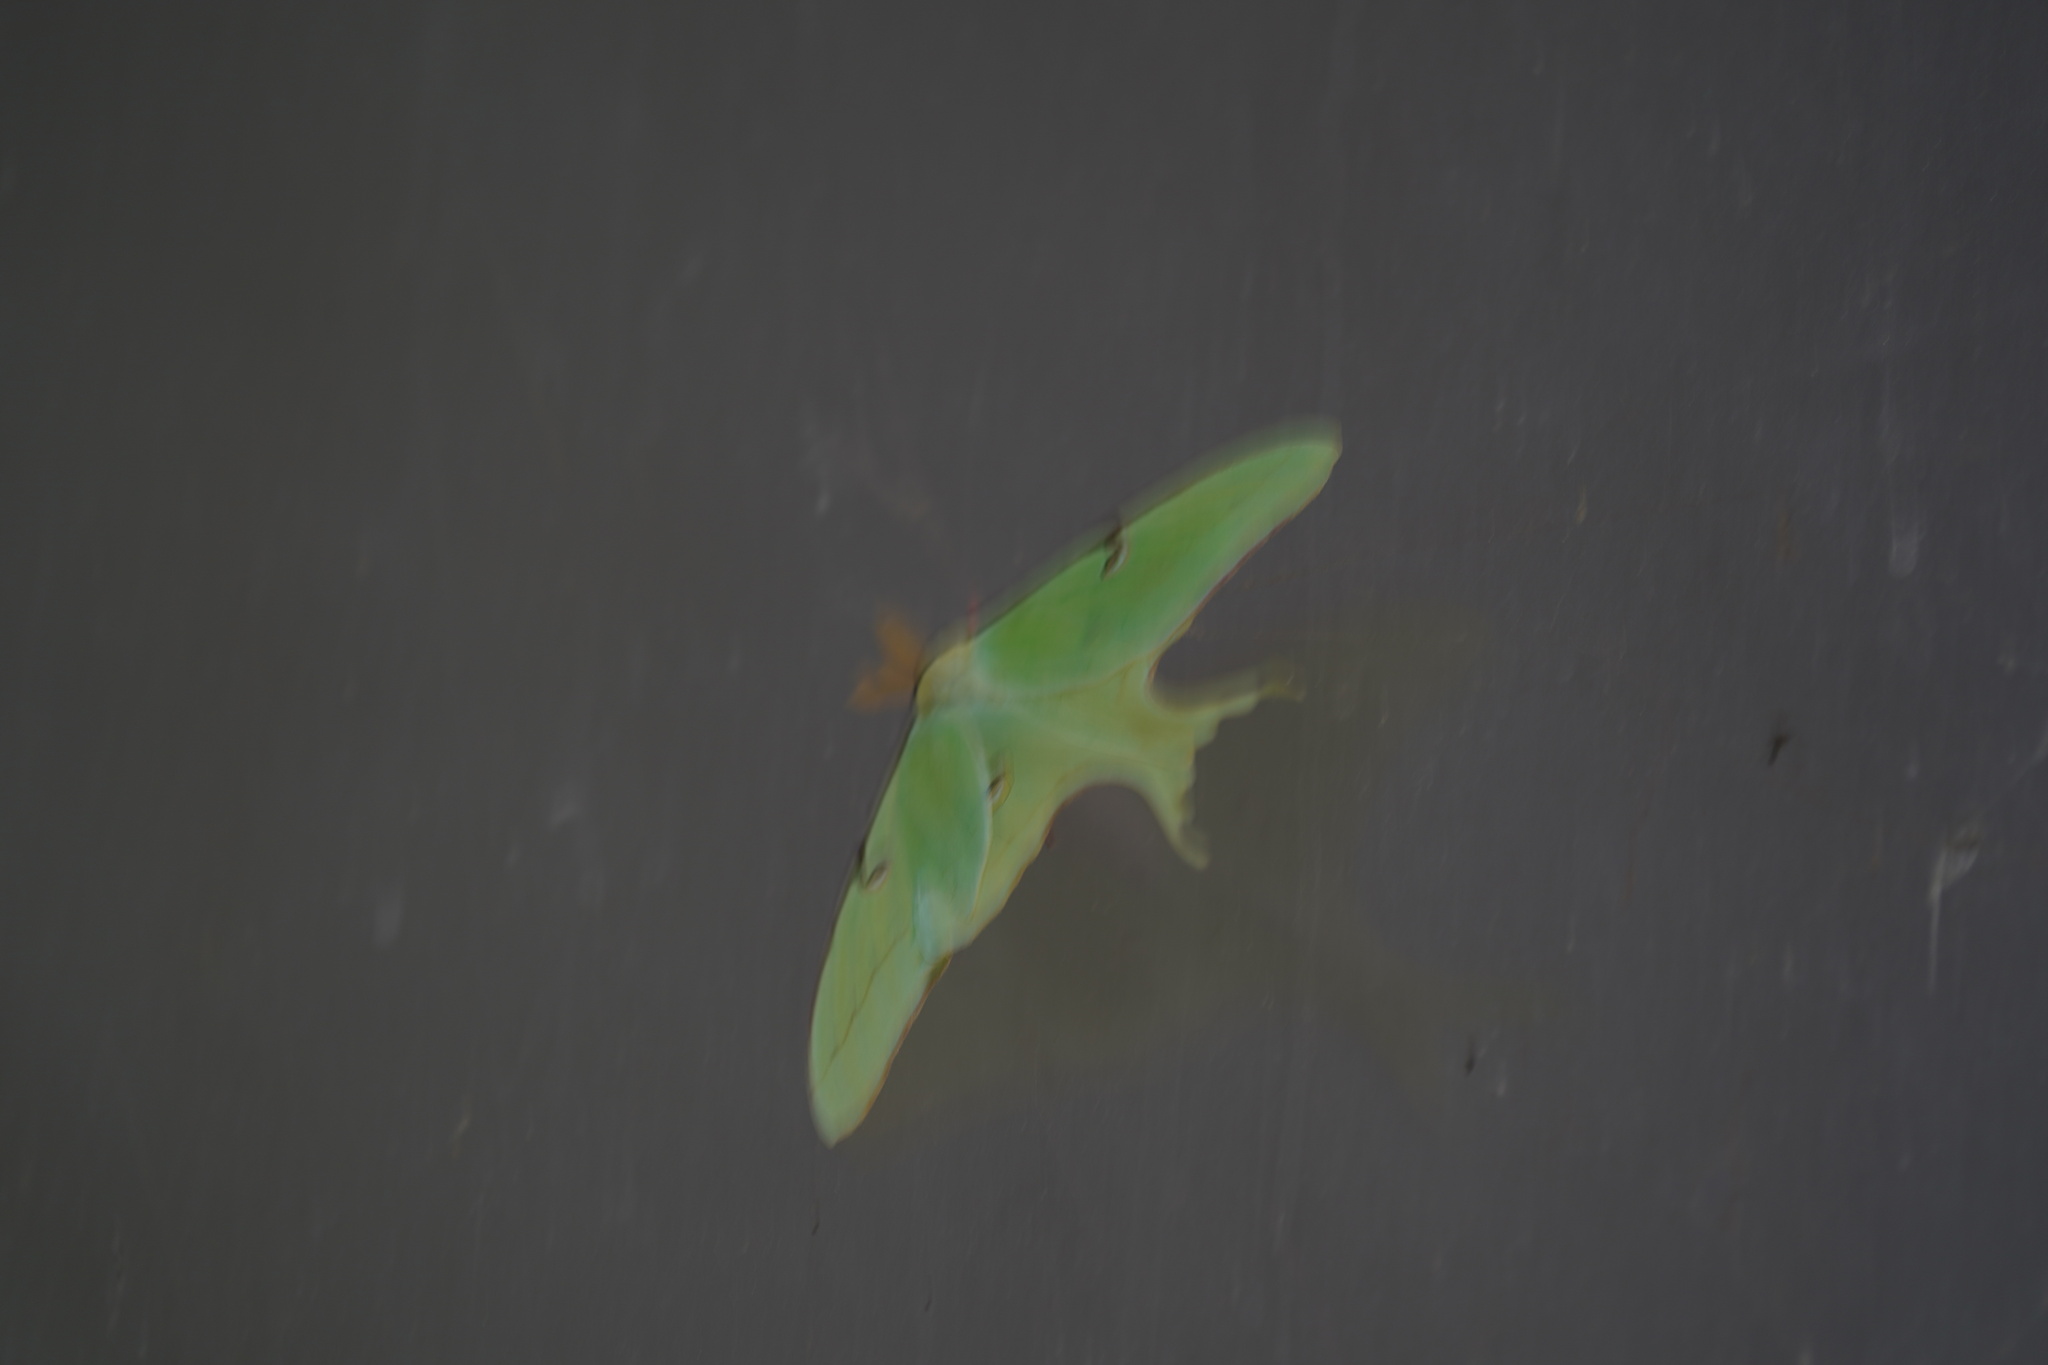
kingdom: Animalia
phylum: Arthropoda
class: Insecta
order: Lepidoptera
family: Saturniidae
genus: Actias
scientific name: Actias luna
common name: Luna moth
